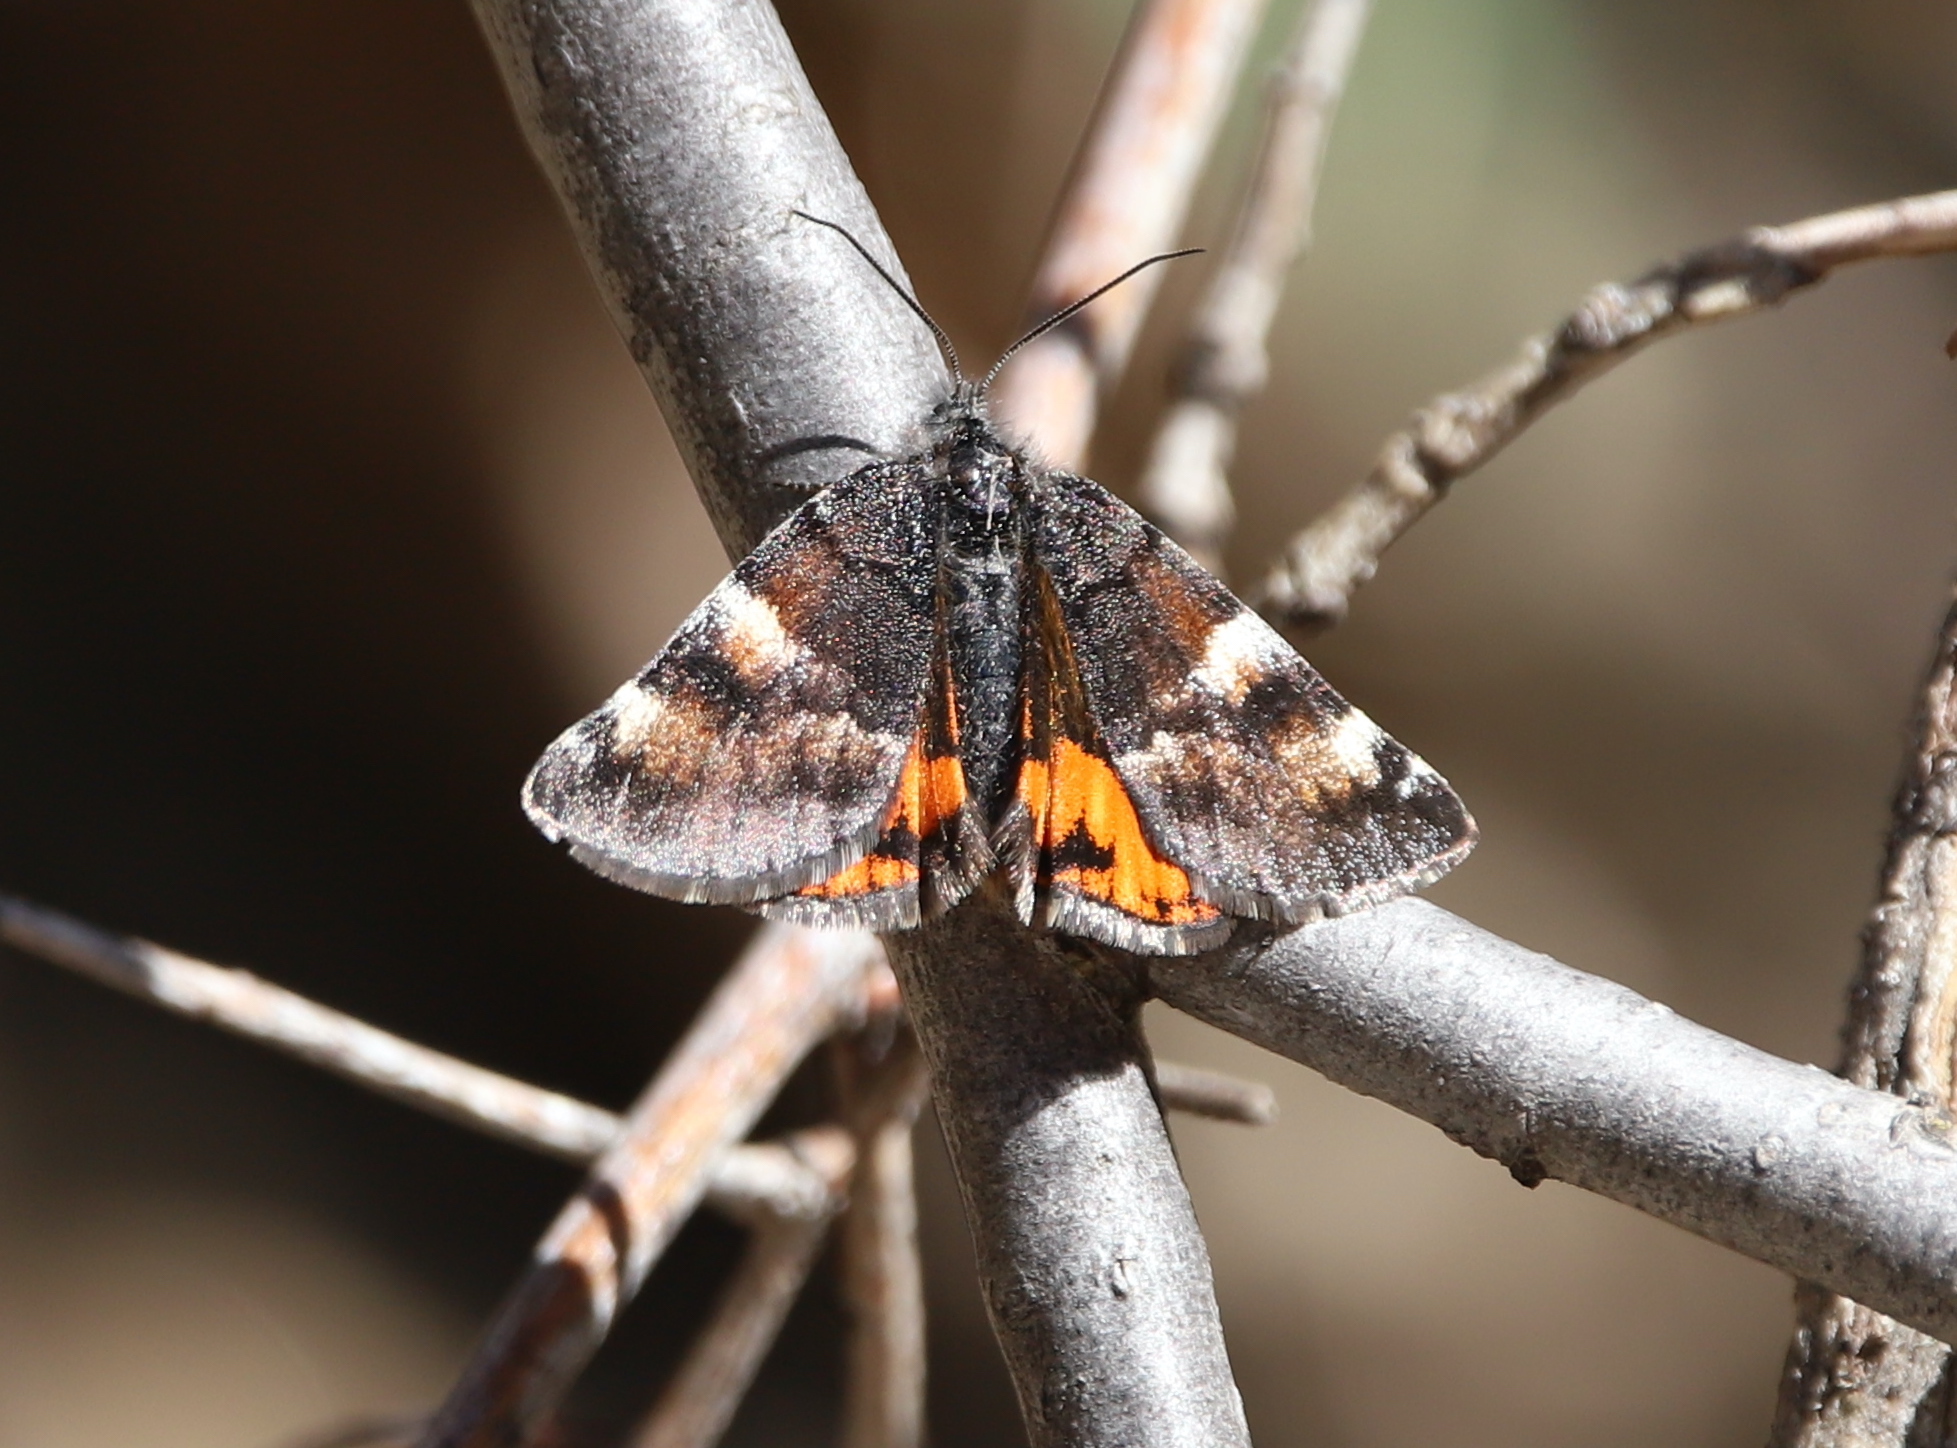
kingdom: Animalia
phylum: Arthropoda
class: Insecta
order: Lepidoptera
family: Geometridae
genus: Archiearis
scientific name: Archiearis infans
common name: First born geometer
